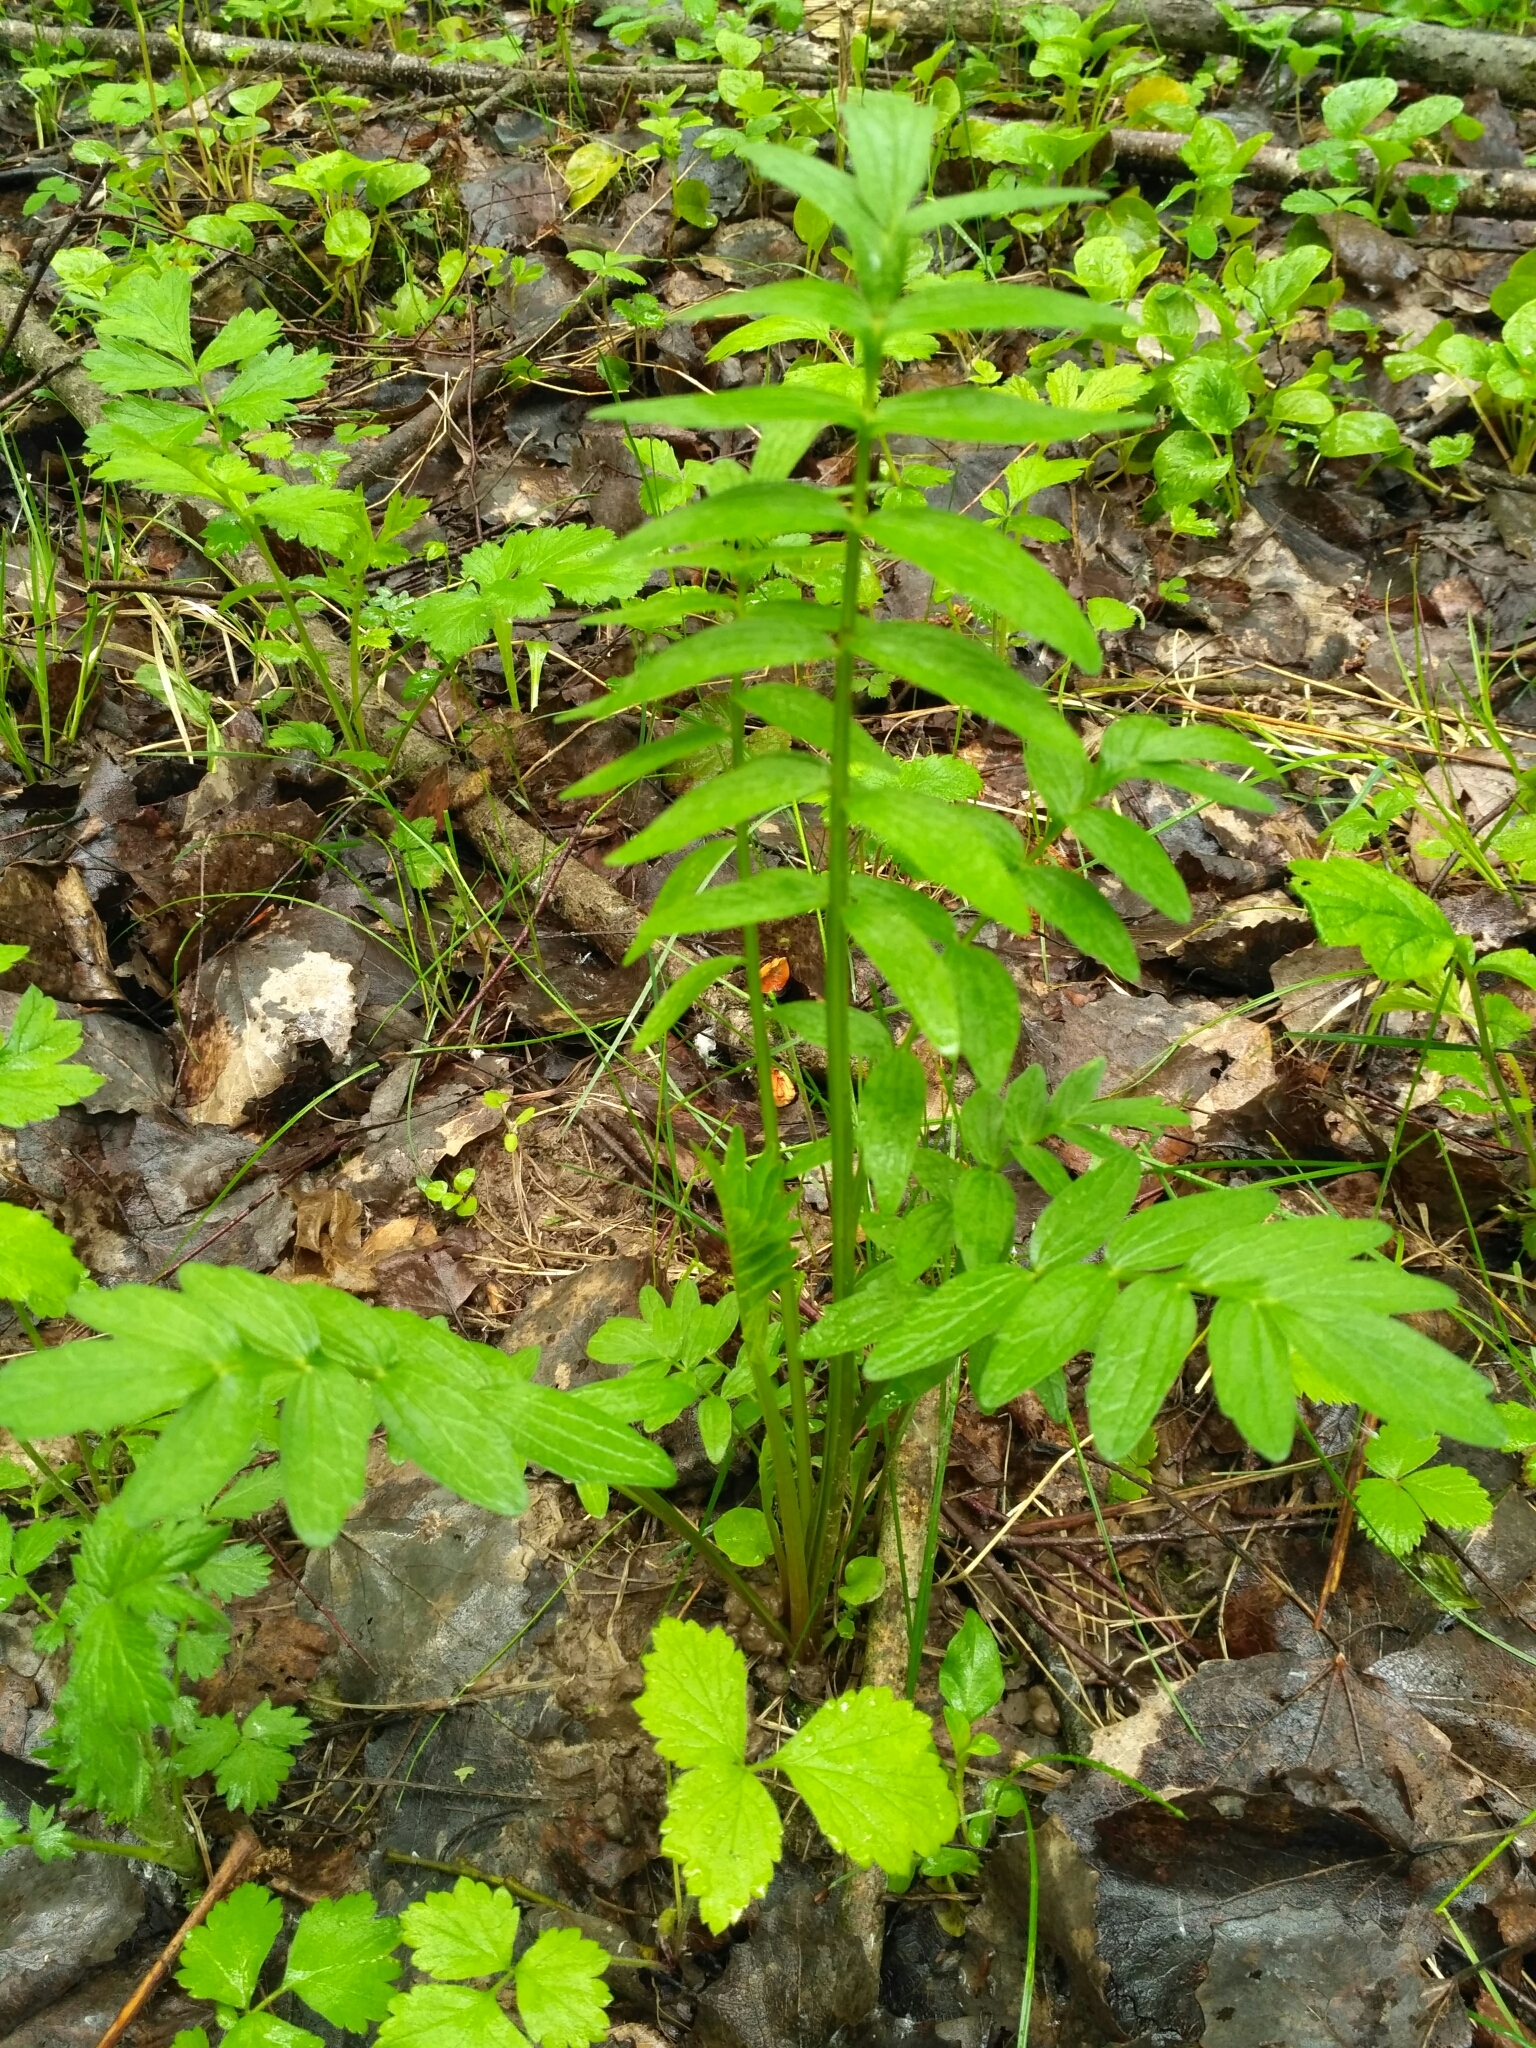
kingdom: Plantae
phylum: Tracheophyta
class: Magnoliopsida
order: Dipsacales
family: Caprifoliaceae
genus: Valeriana
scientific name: Valeriana officinalis
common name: Common valerian
